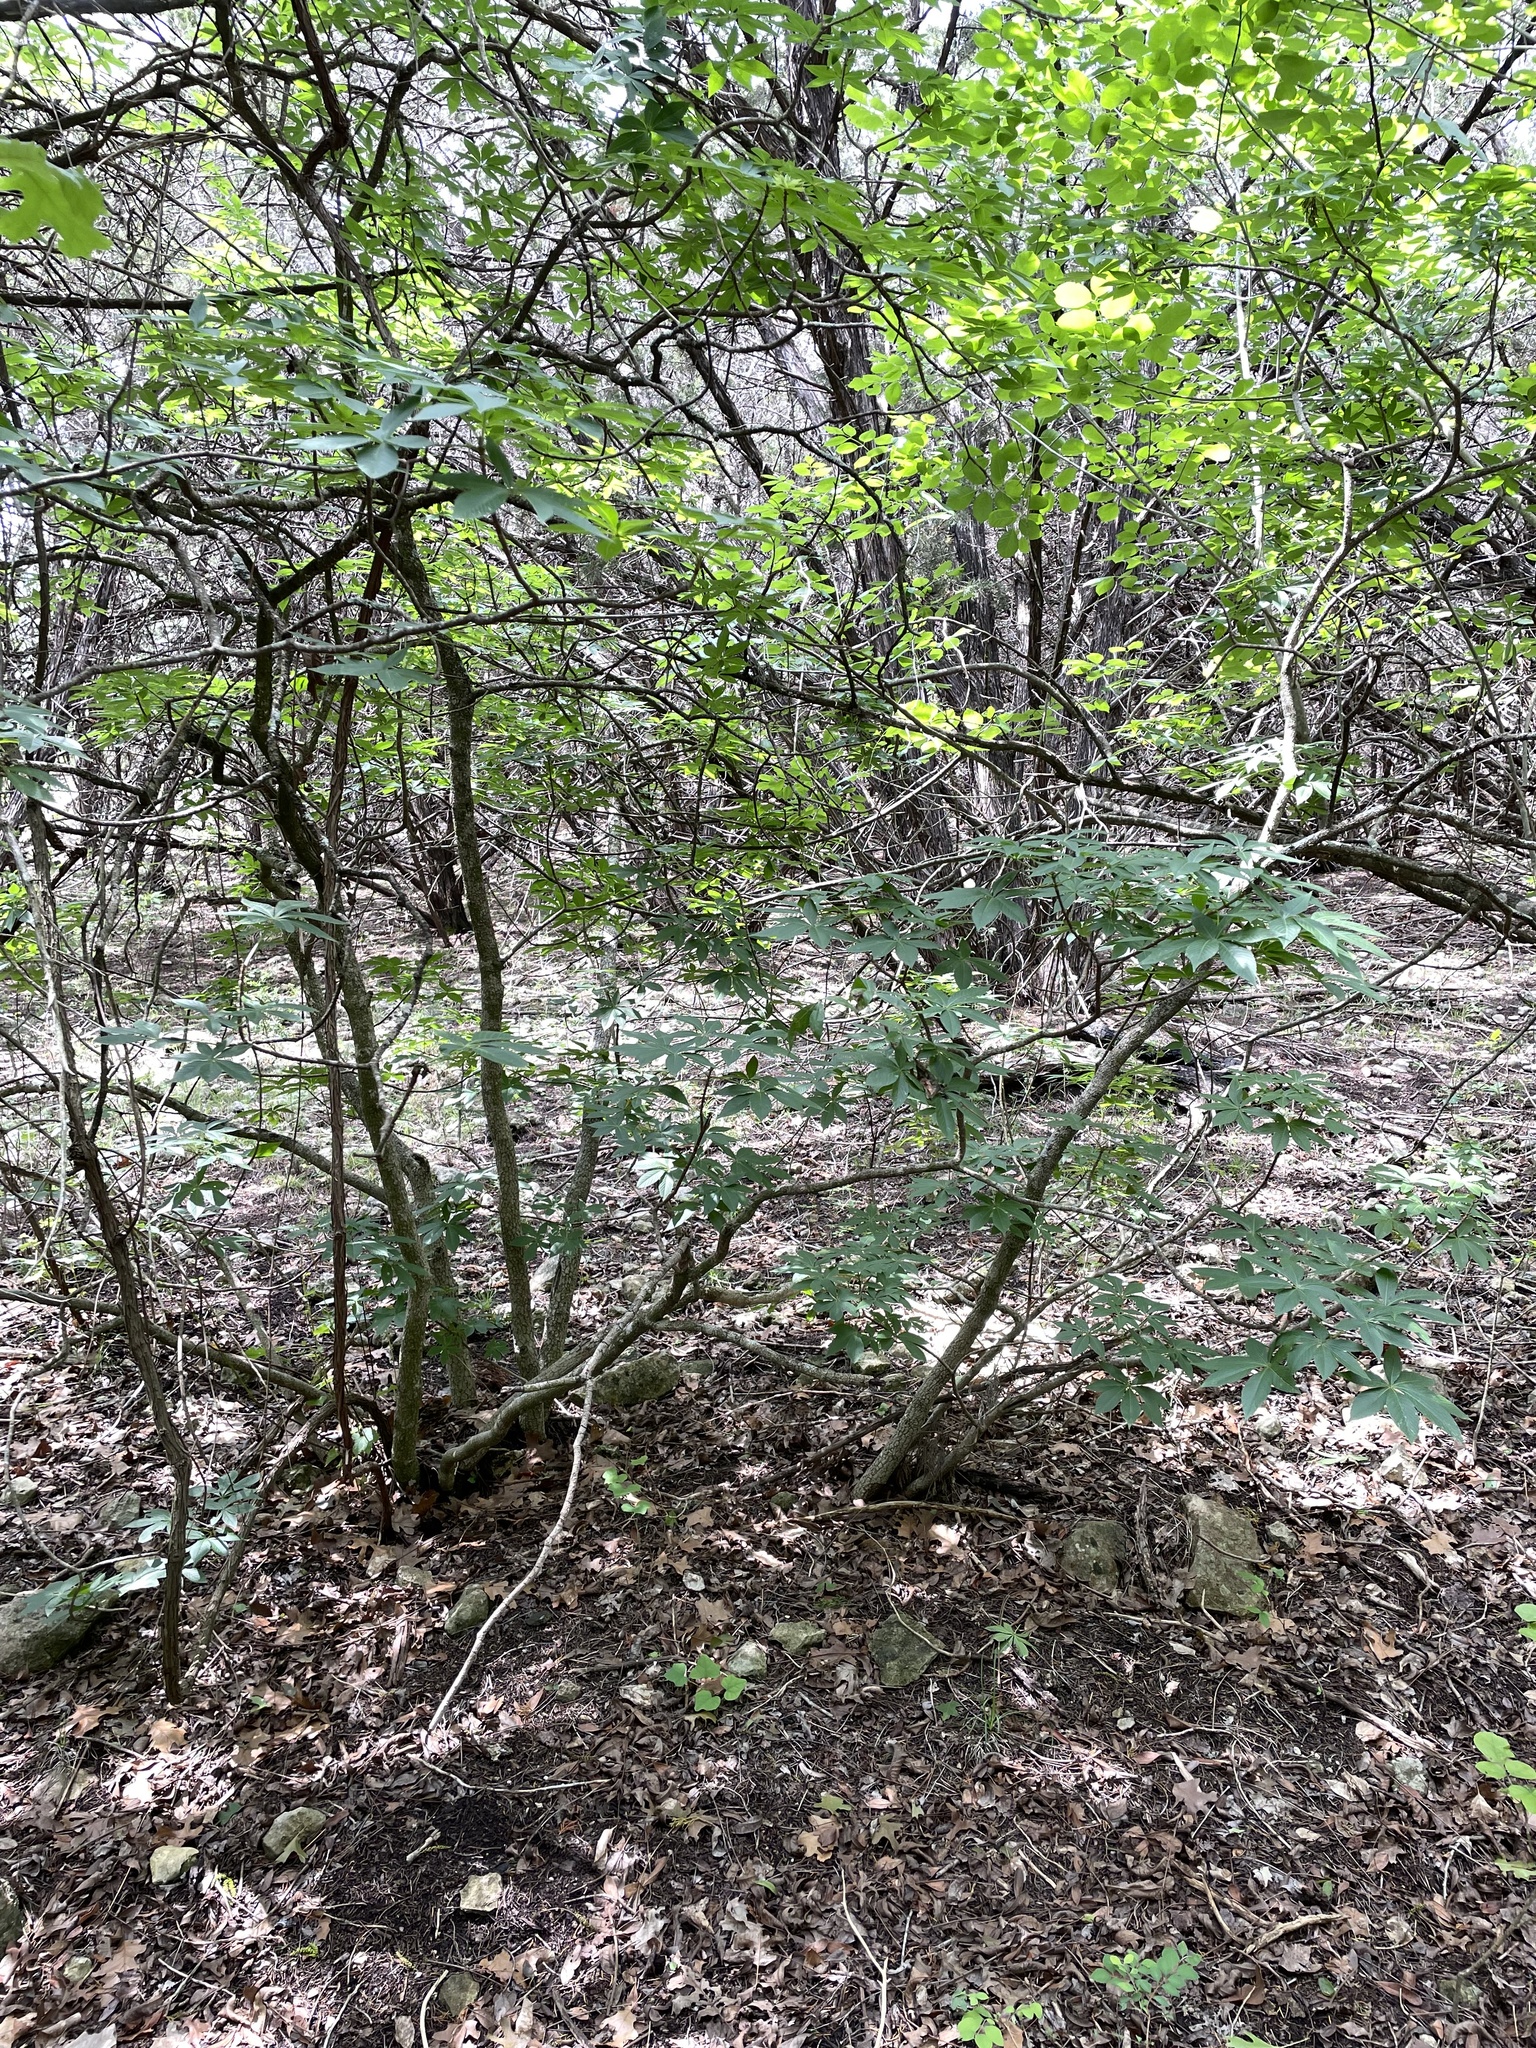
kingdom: Plantae
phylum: Tracheophyta
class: Magnoliopsida
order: Sapindales
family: Sapindaceae
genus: Aesculus
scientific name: Aesculus glabra
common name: Ohio buckeye
